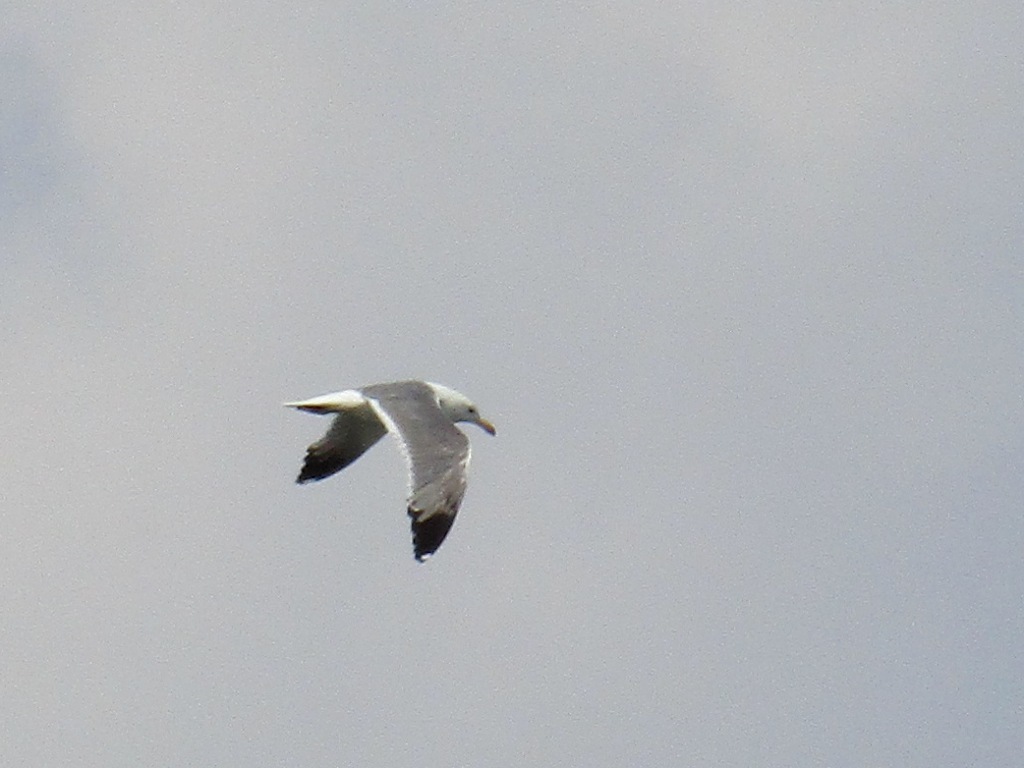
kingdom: Animalia
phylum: Chordata
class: Aves
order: Charadriiformes
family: Laridae
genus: Larus
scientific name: Larus fuscus
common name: Lesser black-backed gull
